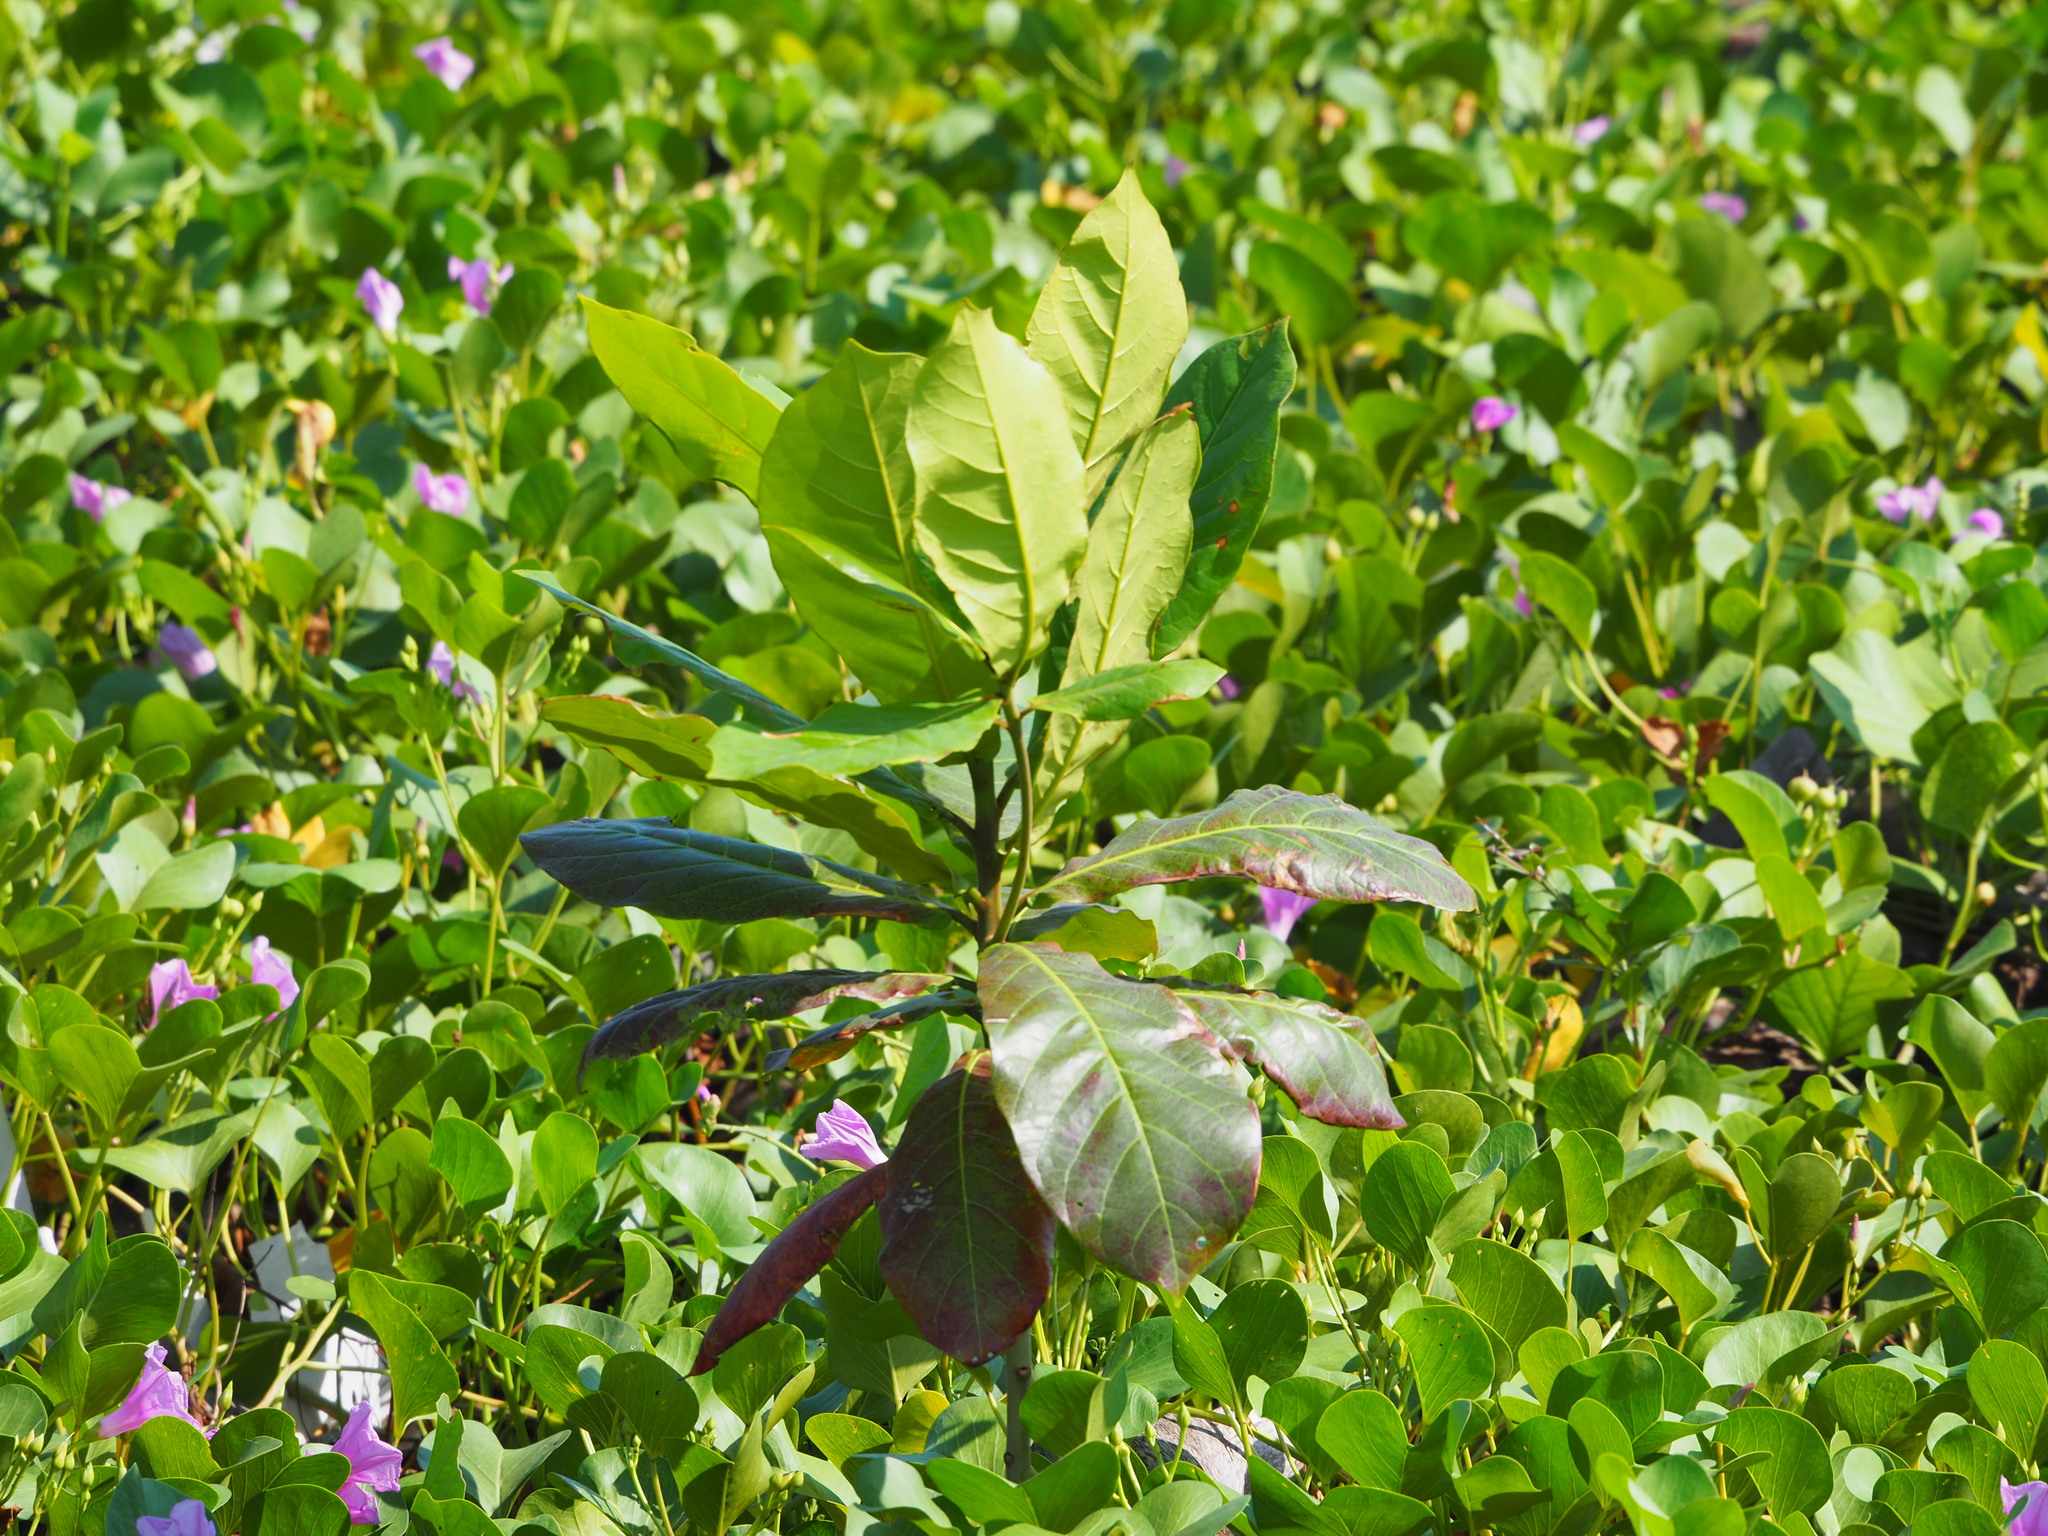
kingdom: Plantae
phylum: Tracheophyta
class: Magnoliopsida
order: Myrtales
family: Combretaceae
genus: Terminalia
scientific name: Terminalia catappa
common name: Tropical almond
